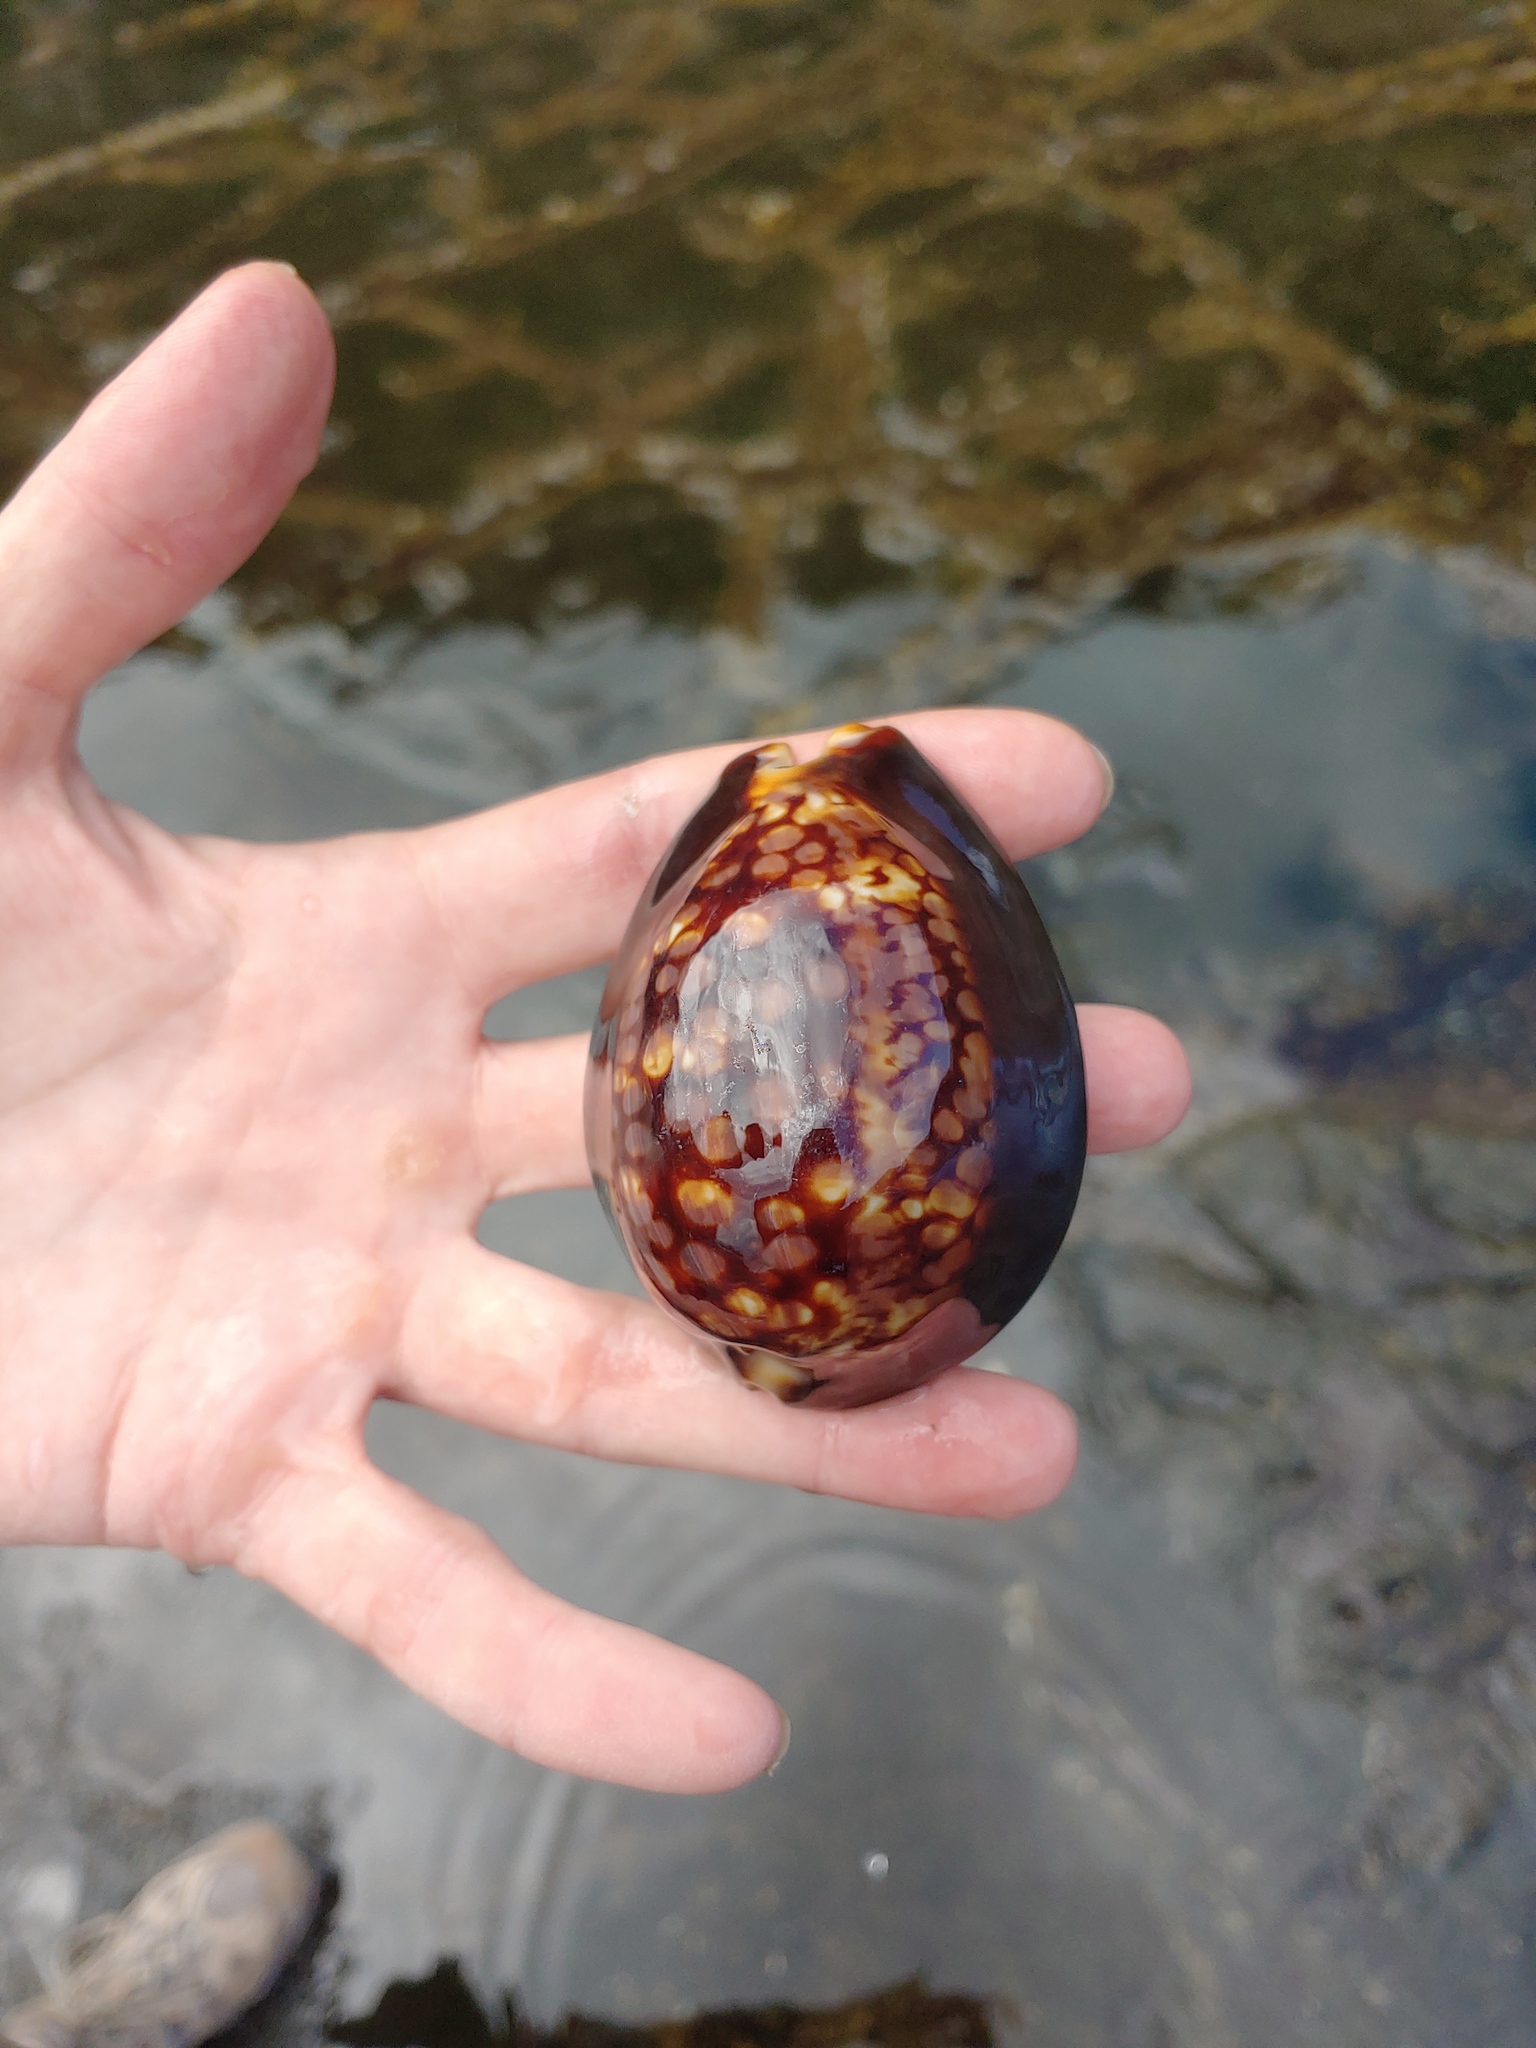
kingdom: Animalia
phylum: Mollusca
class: Gastropoda
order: Littorinimorpha
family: Cypraeidae
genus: Mauritia
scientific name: Mauritia mauritiana
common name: Hump-backed cowrie
